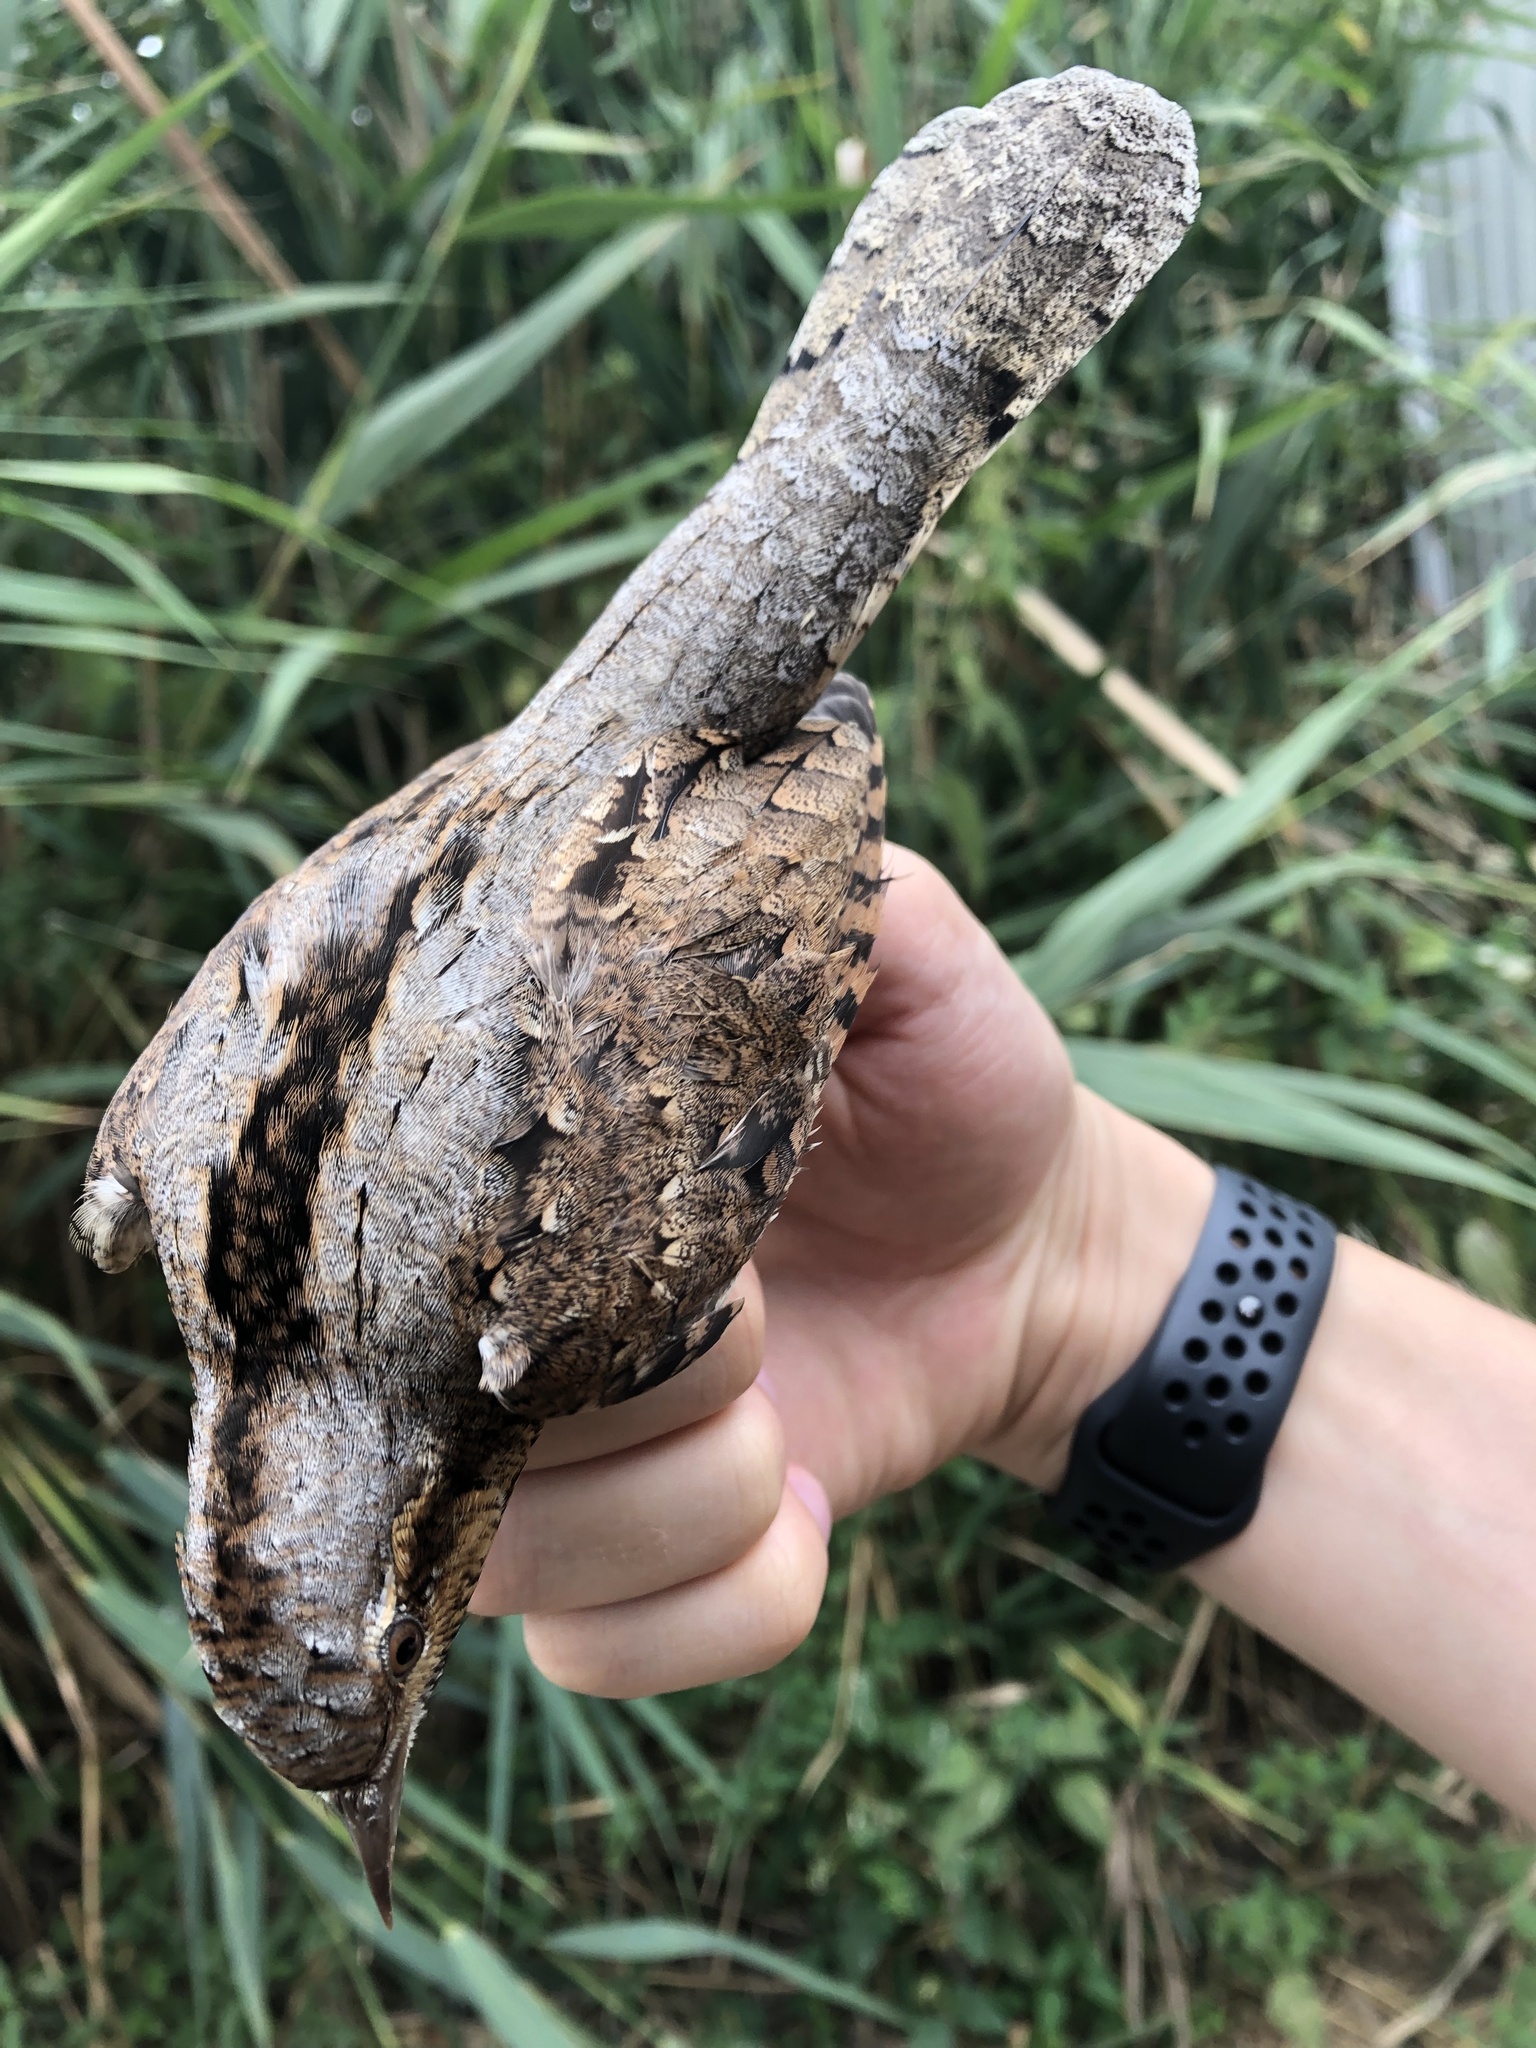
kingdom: Animalia
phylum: Chordata
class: Aves
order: Piciformes
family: Picidae
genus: Jynx
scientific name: Jynx torquilla
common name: Eurasian wryneck
